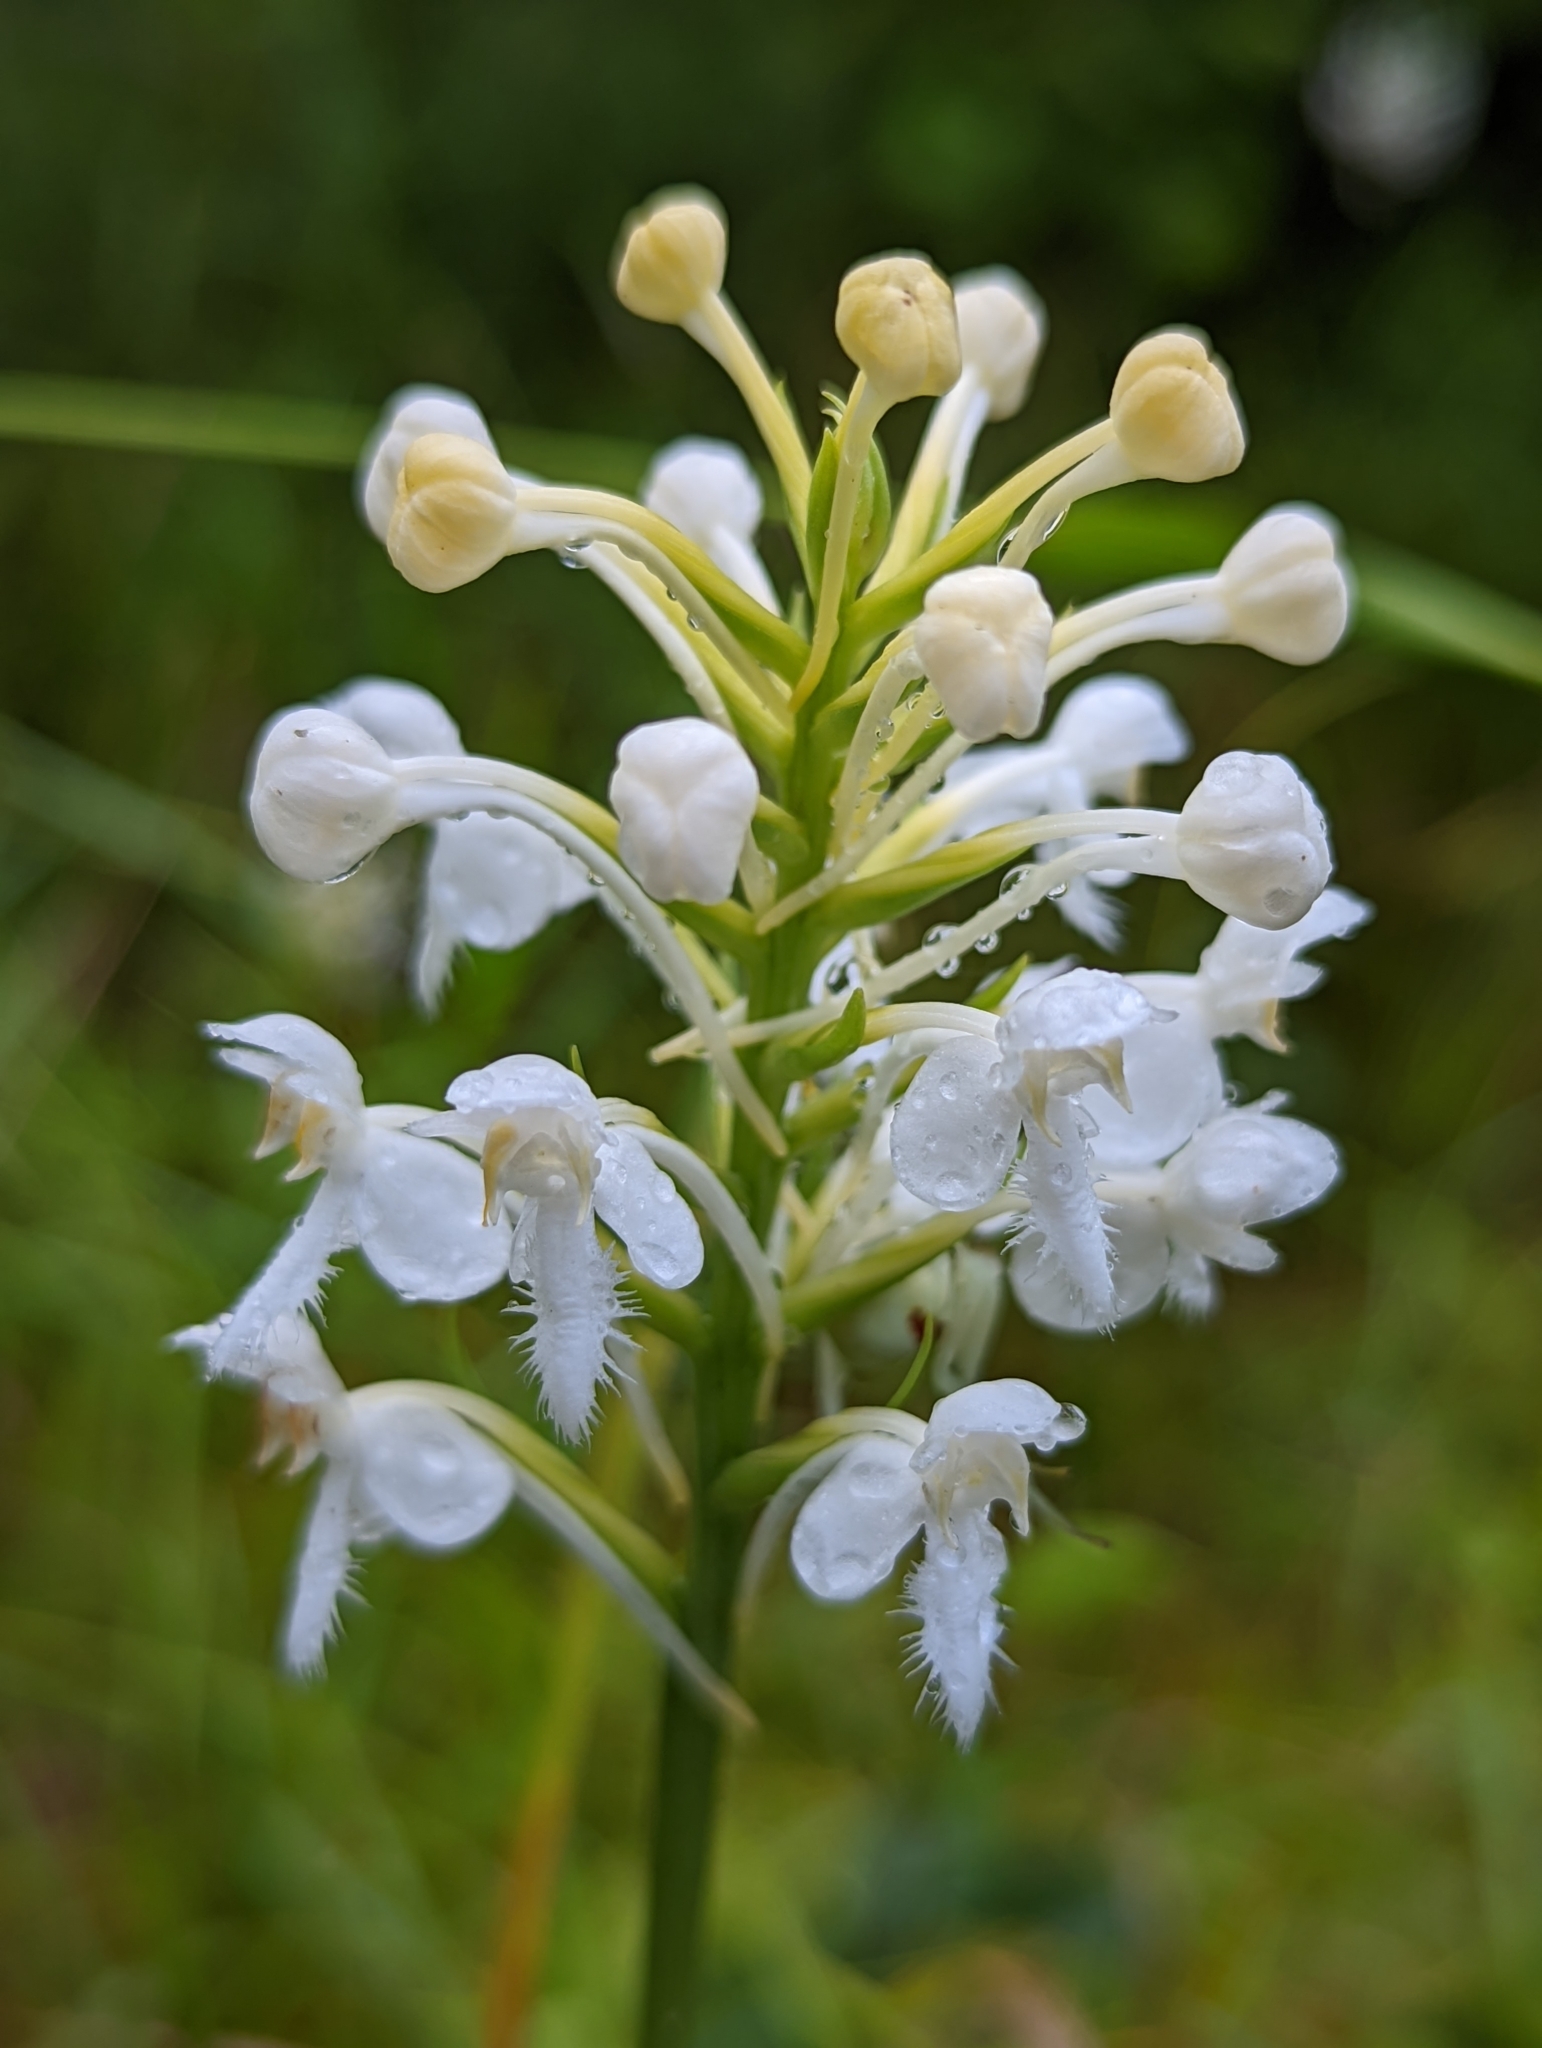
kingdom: Plantae
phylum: Tracheophyta
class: Liliopsida
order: Asparagales
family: Orchidaceae
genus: Platanthera
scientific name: Platanthera blephariglottis
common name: White fringed orchid
